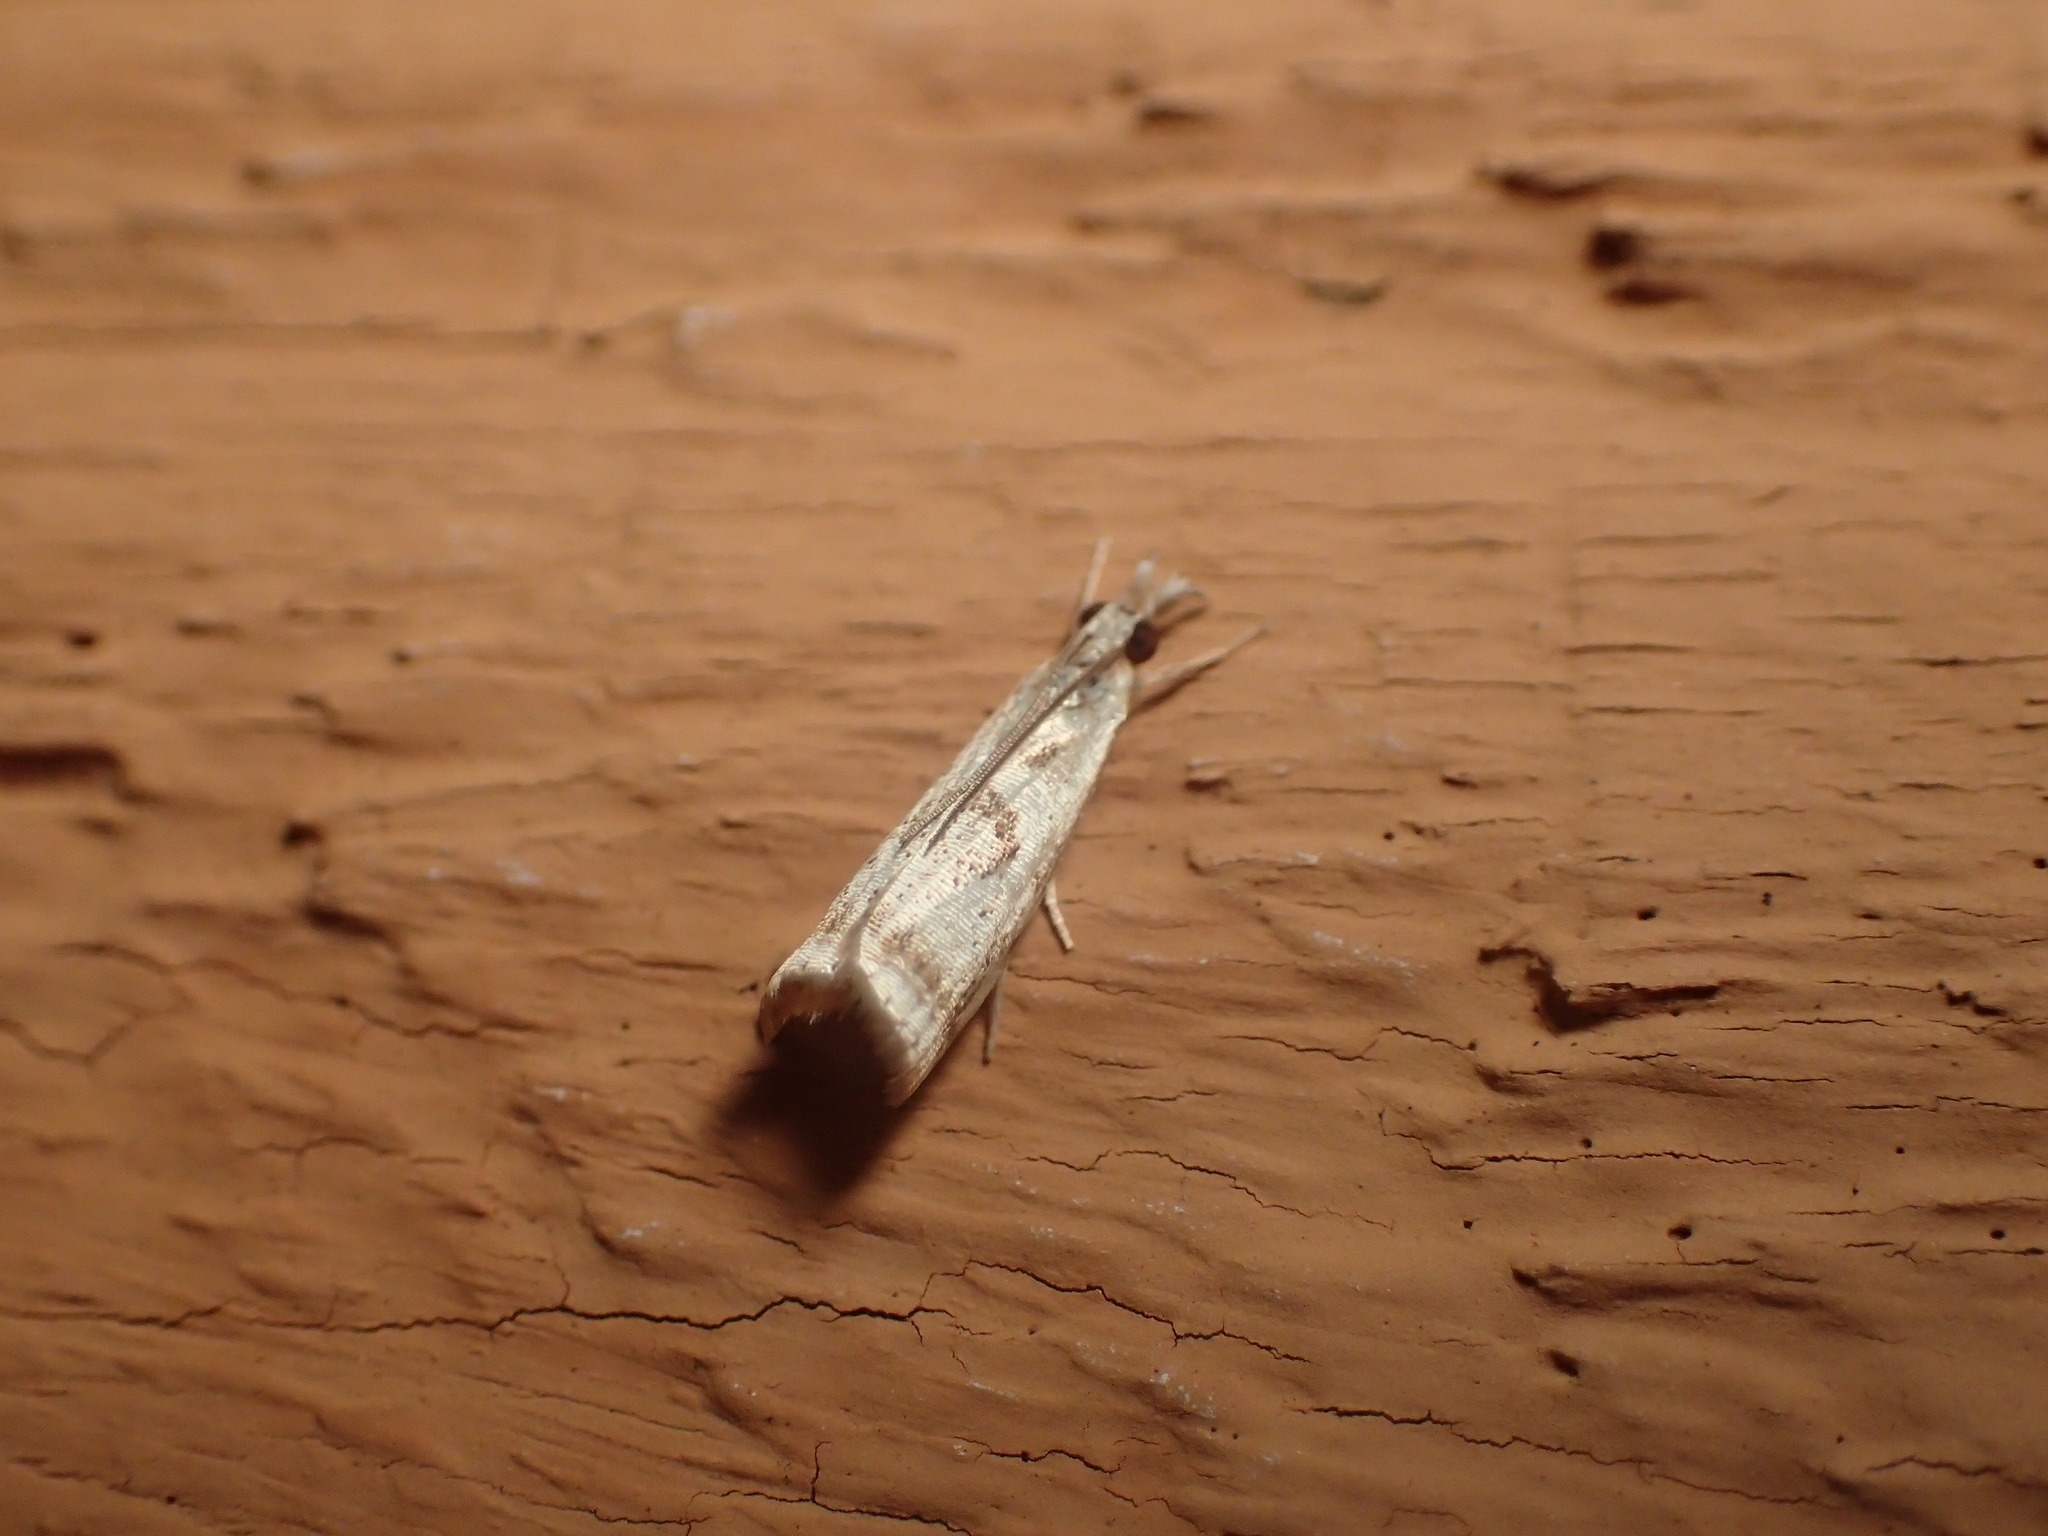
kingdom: Animalia
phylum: Arthropoda
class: Insecta
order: Lepidoptera
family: Crambidae
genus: Microcrambus
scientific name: Microcrambus elegans
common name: Elegant grass-veneer
